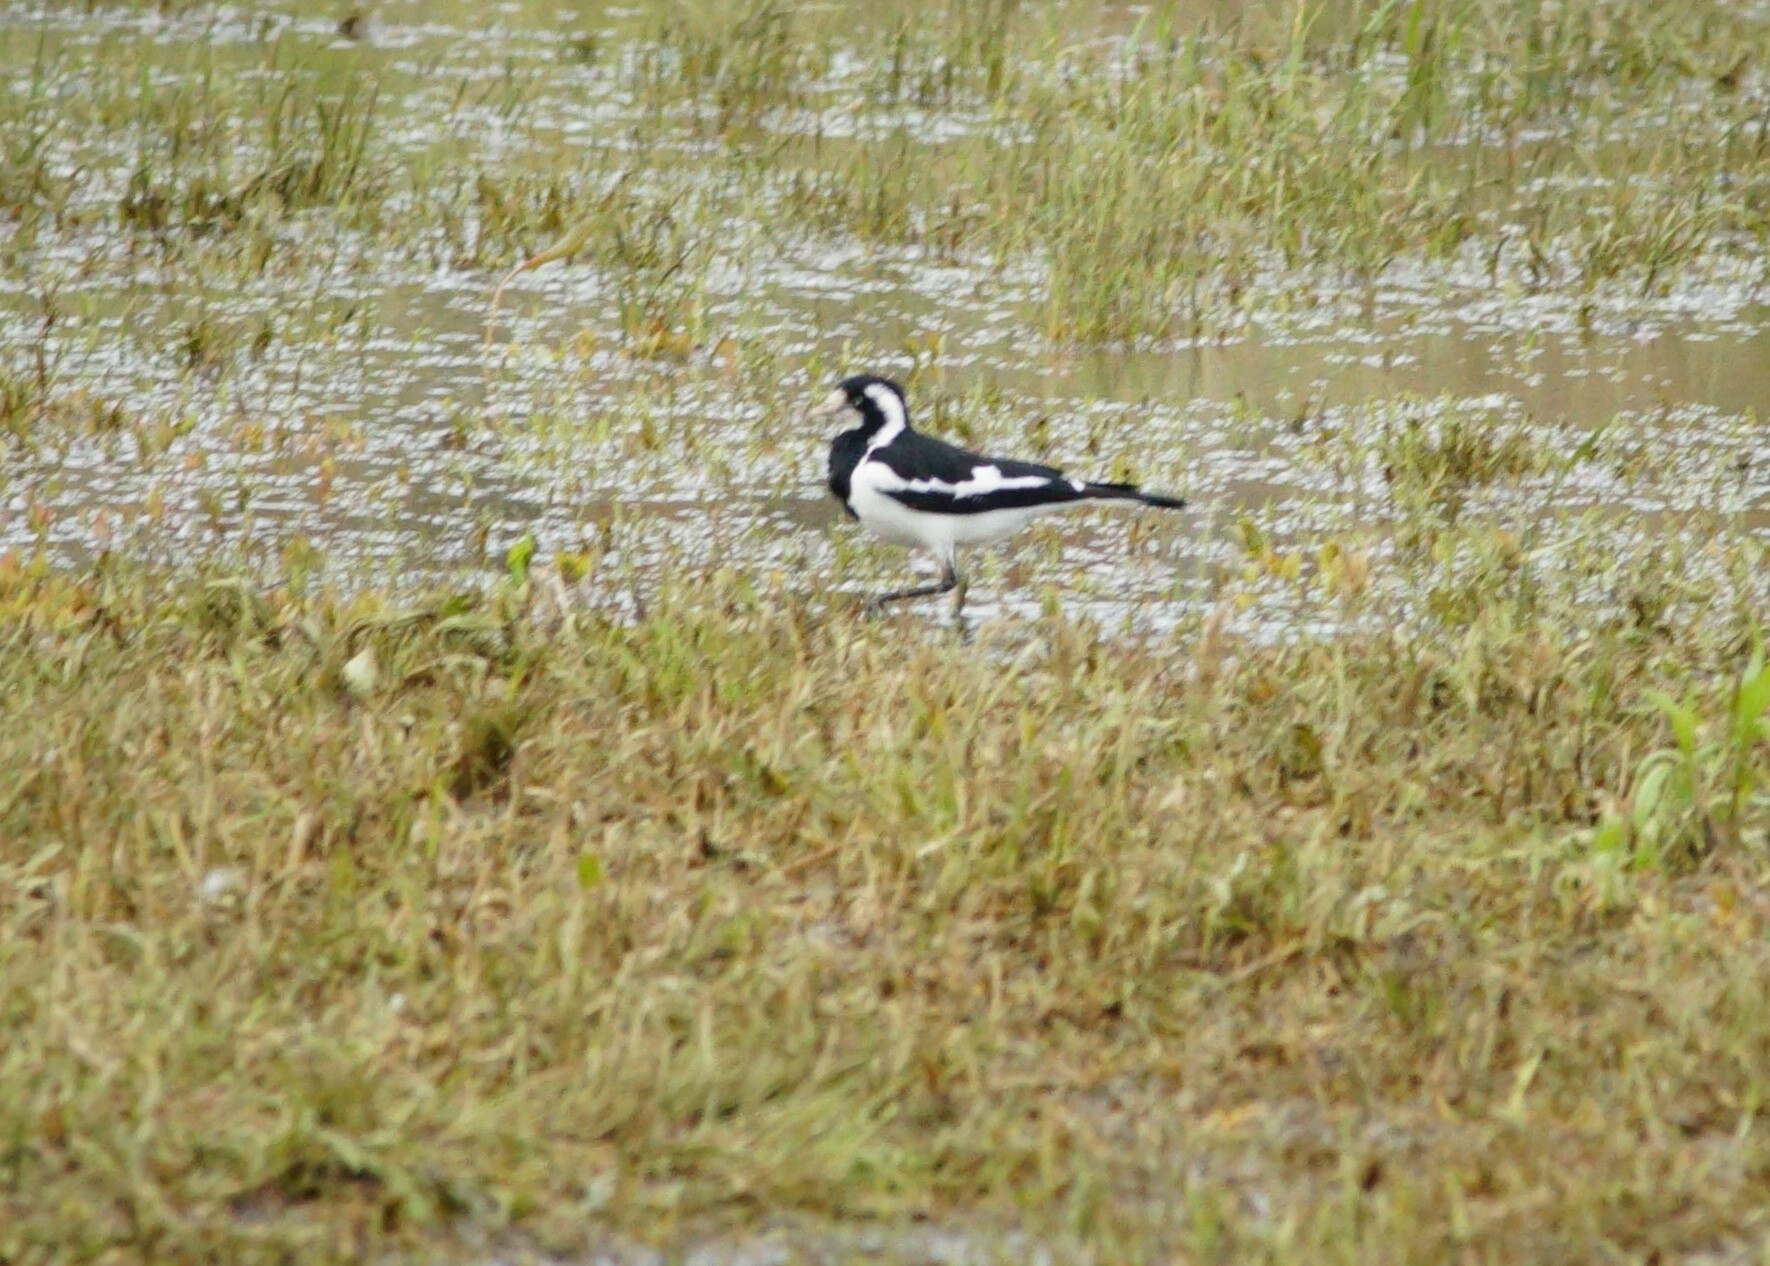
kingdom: Animalia
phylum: Chordata
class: Aves
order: Passeriformes
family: Monarchidae
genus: Grallina
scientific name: Grallina cyanoleuca
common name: Magpie-lark
